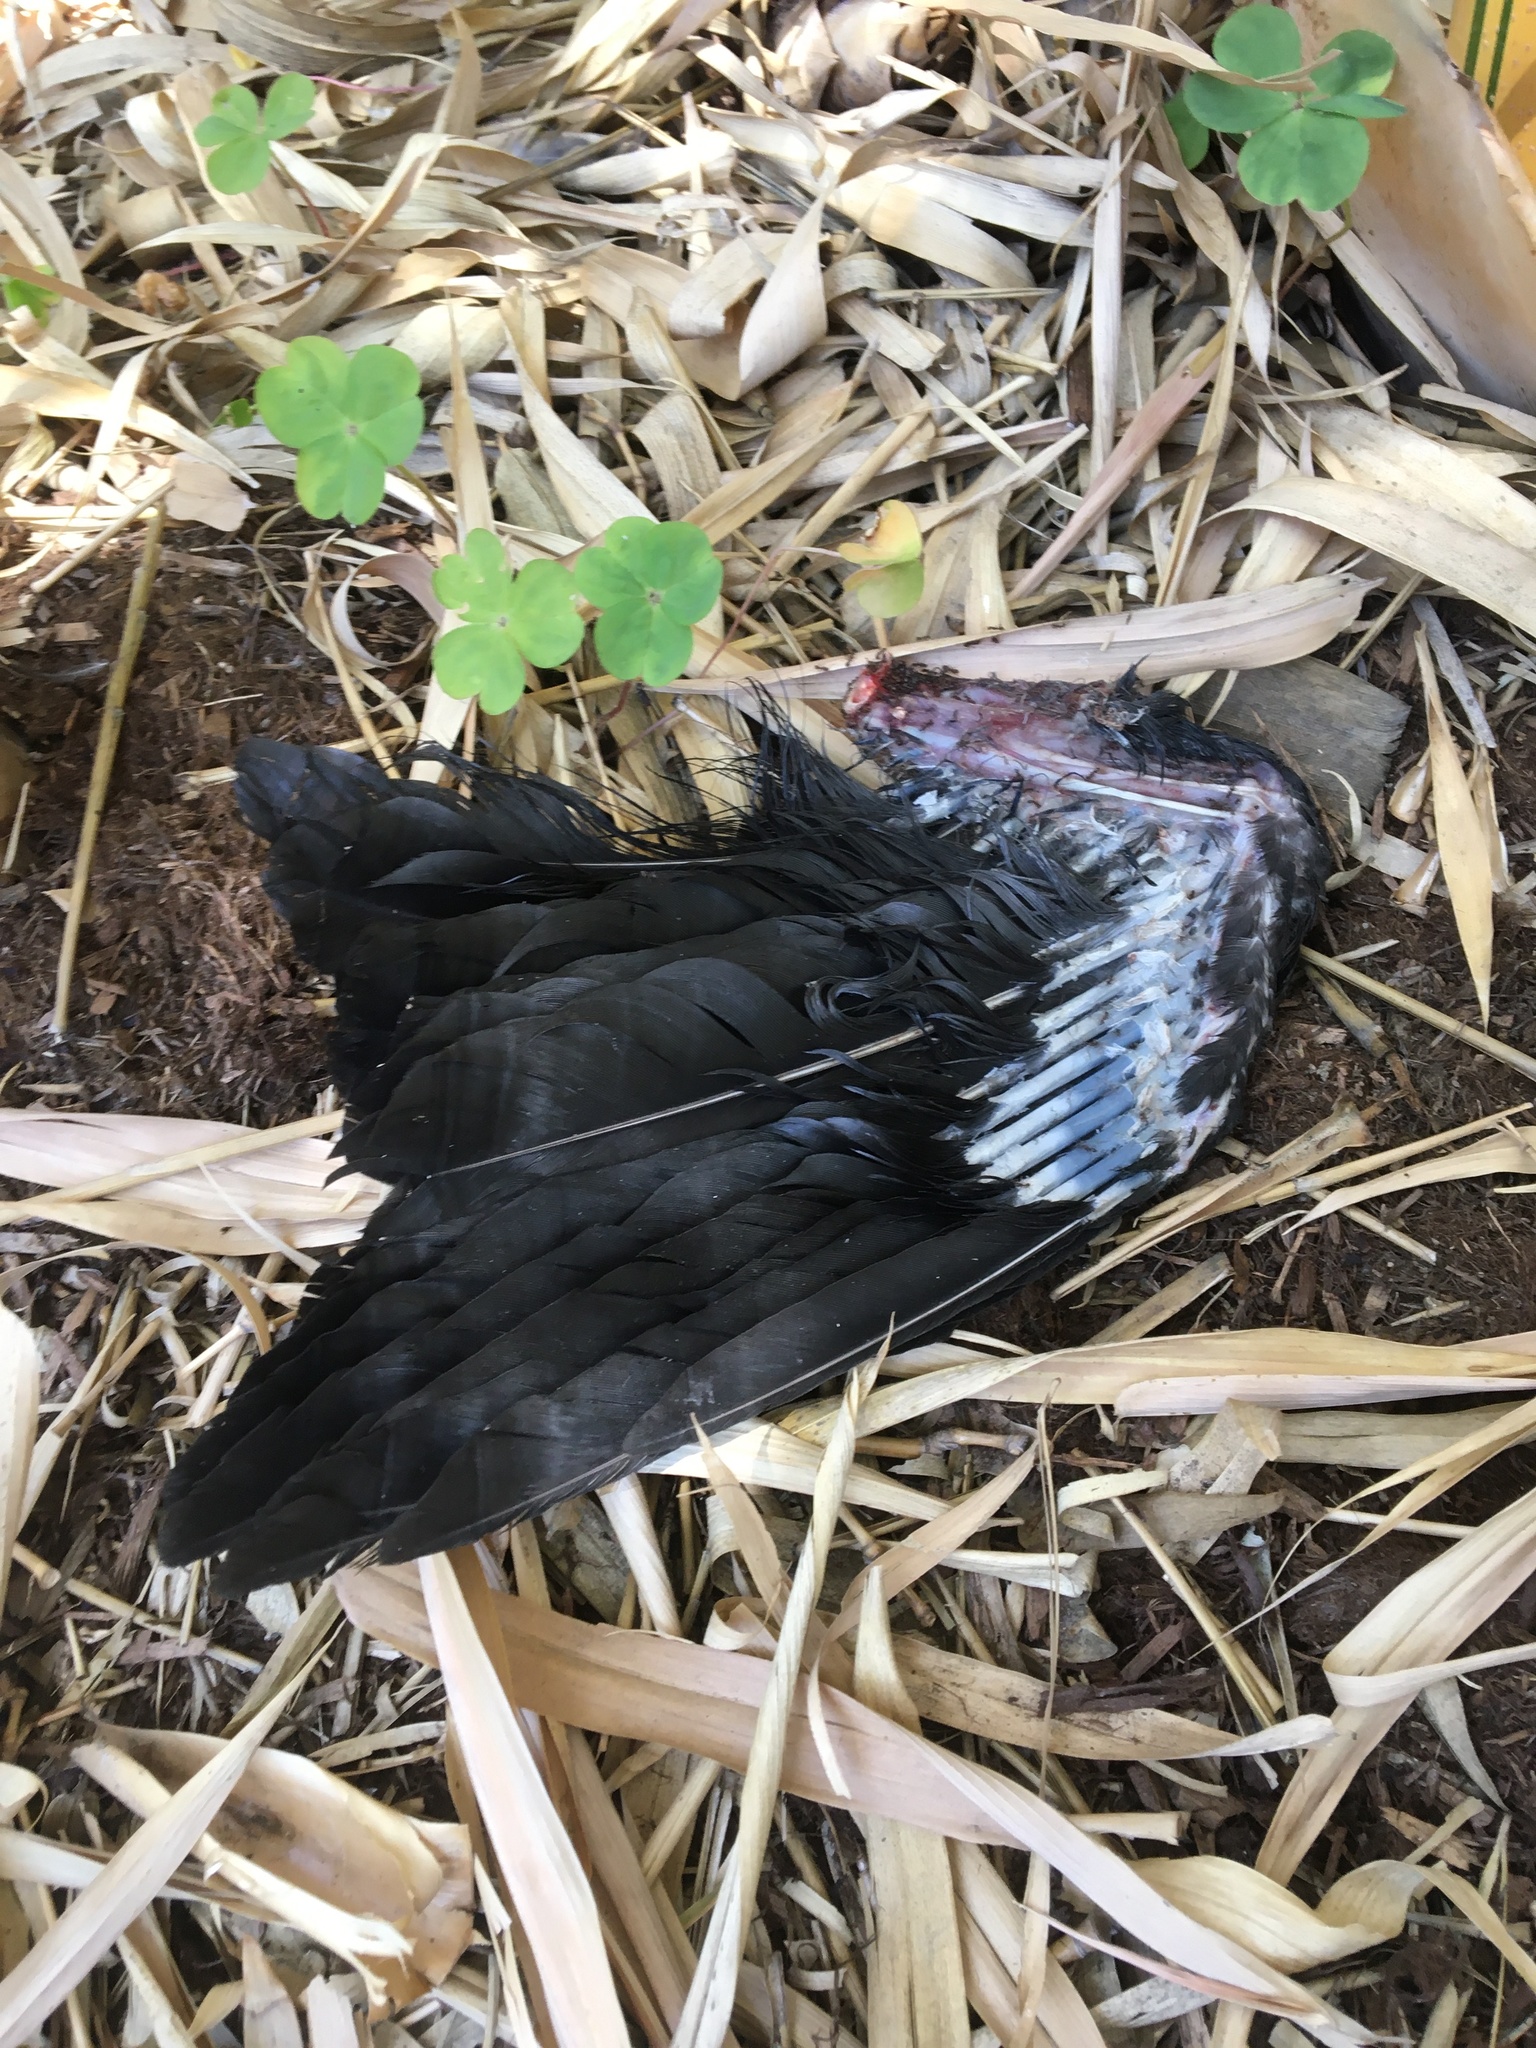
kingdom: Animalia
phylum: Chordata
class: Aves
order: Passeriformes
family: Corvidae
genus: Corvus
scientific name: Corvus brachyrhynchos
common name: American crow
